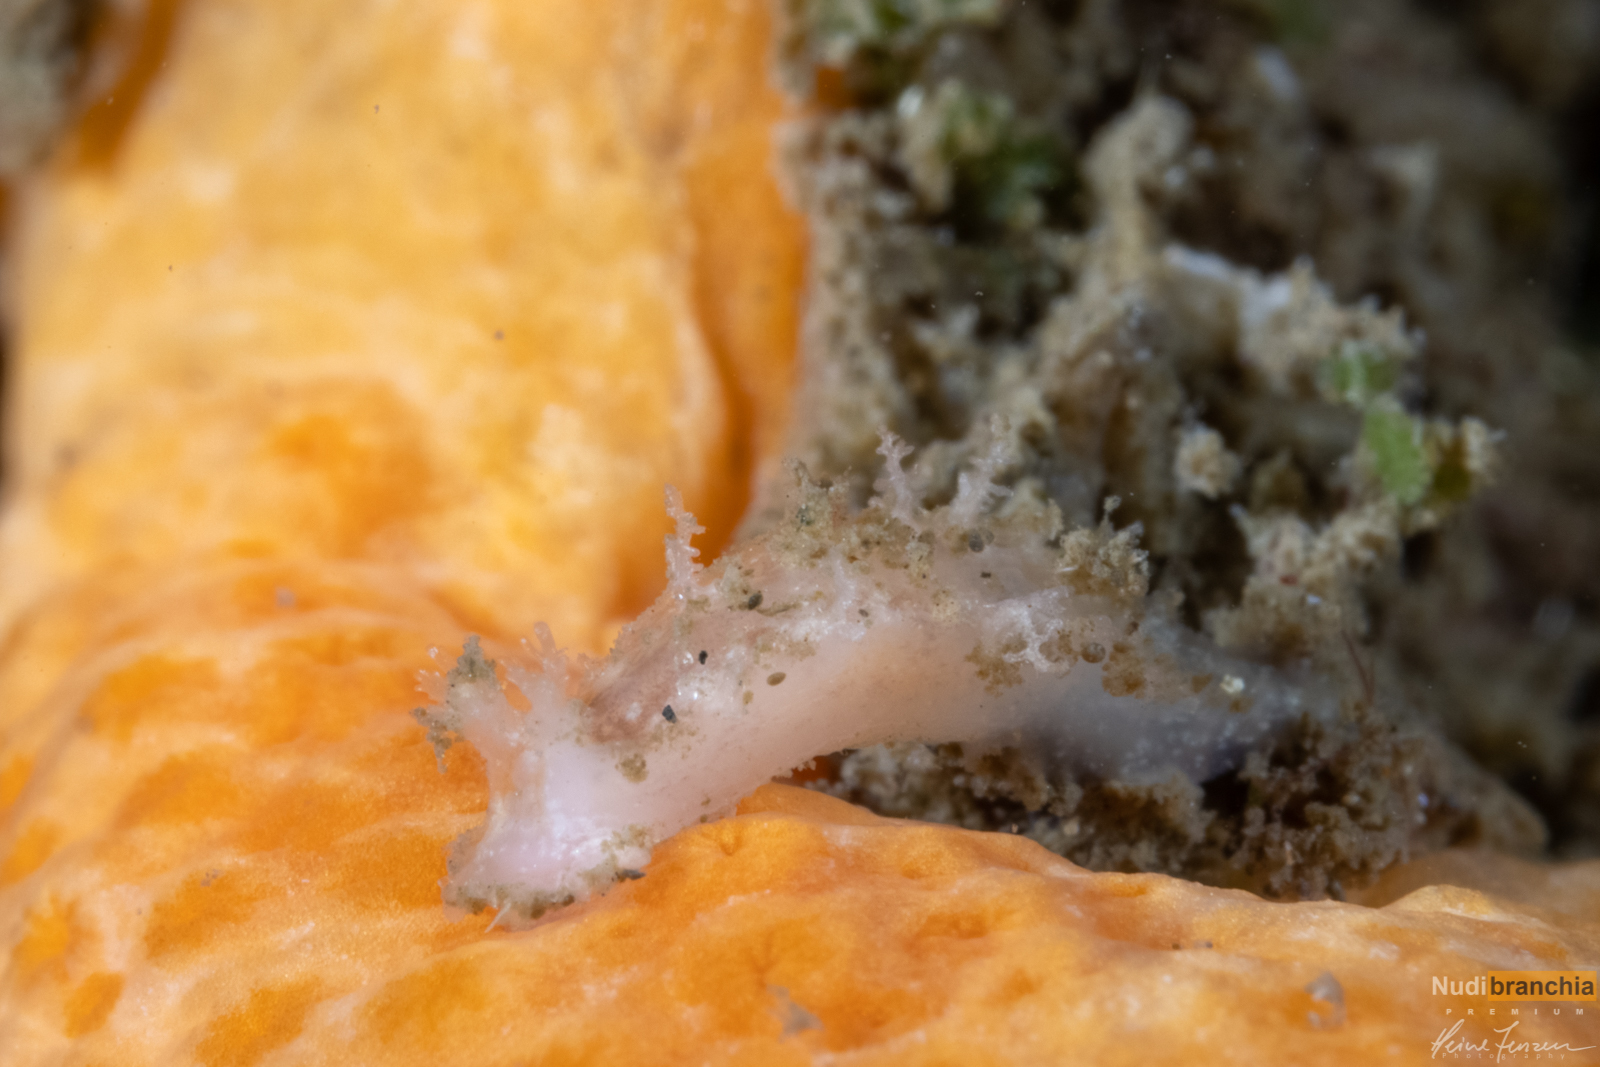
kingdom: Animalia
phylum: Mollusca
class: Gastropoda
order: Nudibranchia
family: Tritoniidae
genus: Duvaucelia
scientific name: Duvaucelia plebeia
